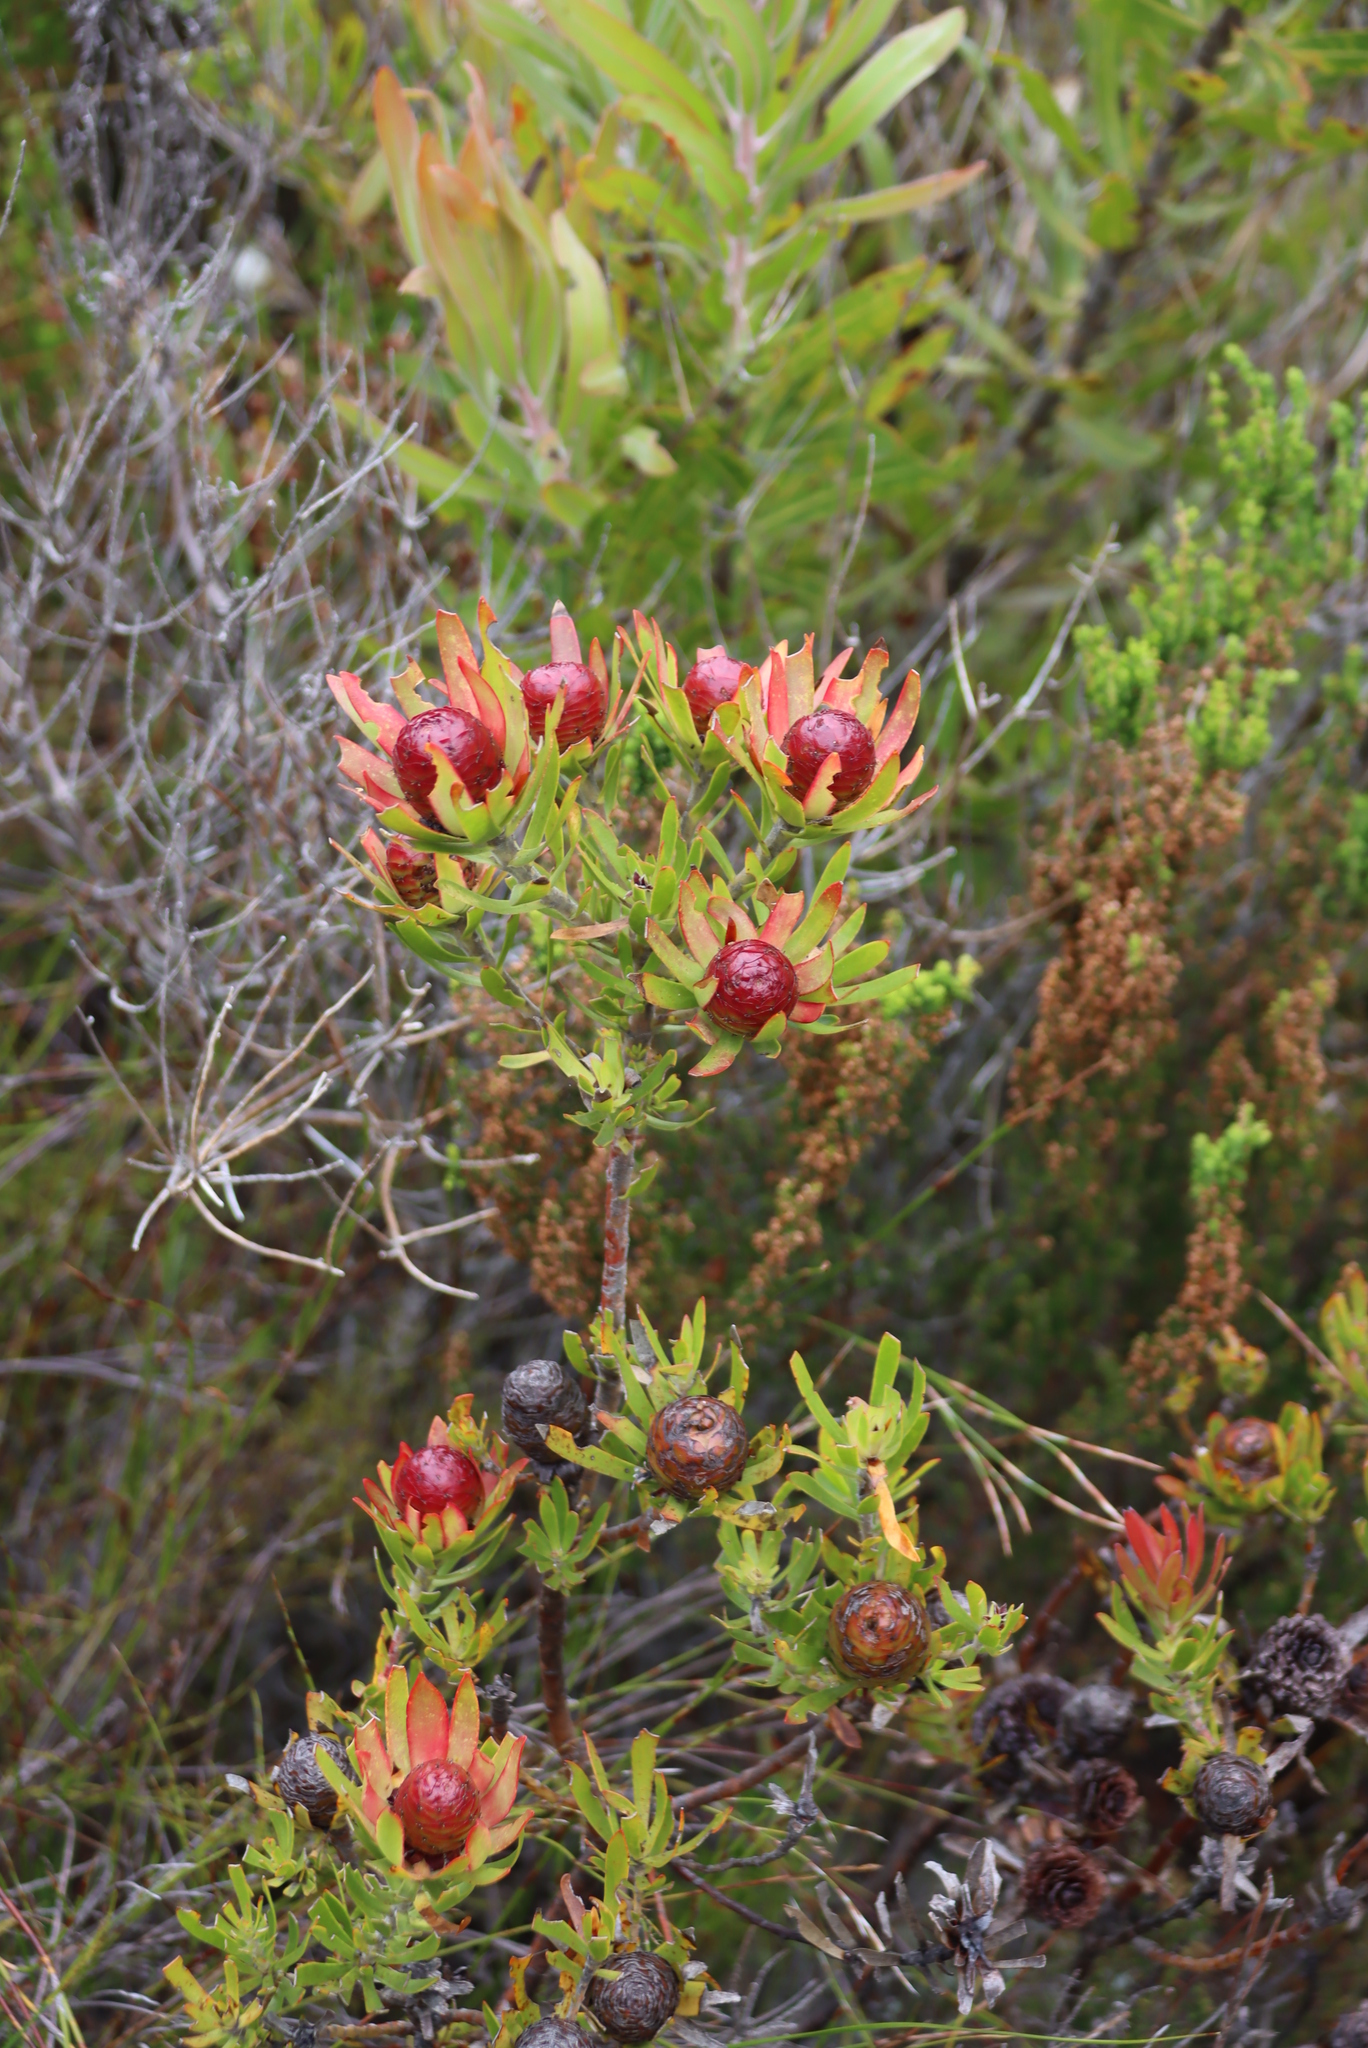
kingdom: Plantae
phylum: Tracheophyta
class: Magnoliopsida
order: Proteales
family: Proteaceae
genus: Leucadendron
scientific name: Leucadendron spissifolium
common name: Spear-leaf conebush
